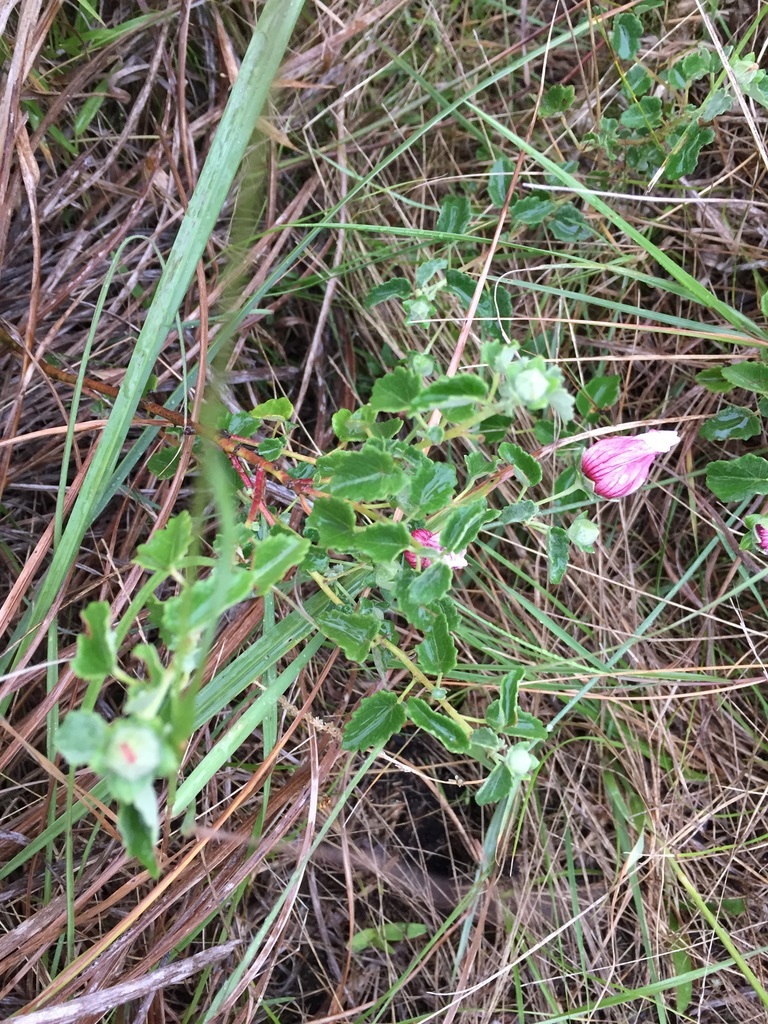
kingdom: Plantae
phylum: Tracheophyta
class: Magnoliopsida
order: Malvales
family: Malvaceae
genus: Pavonia
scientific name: Pavonia cymbalaria
